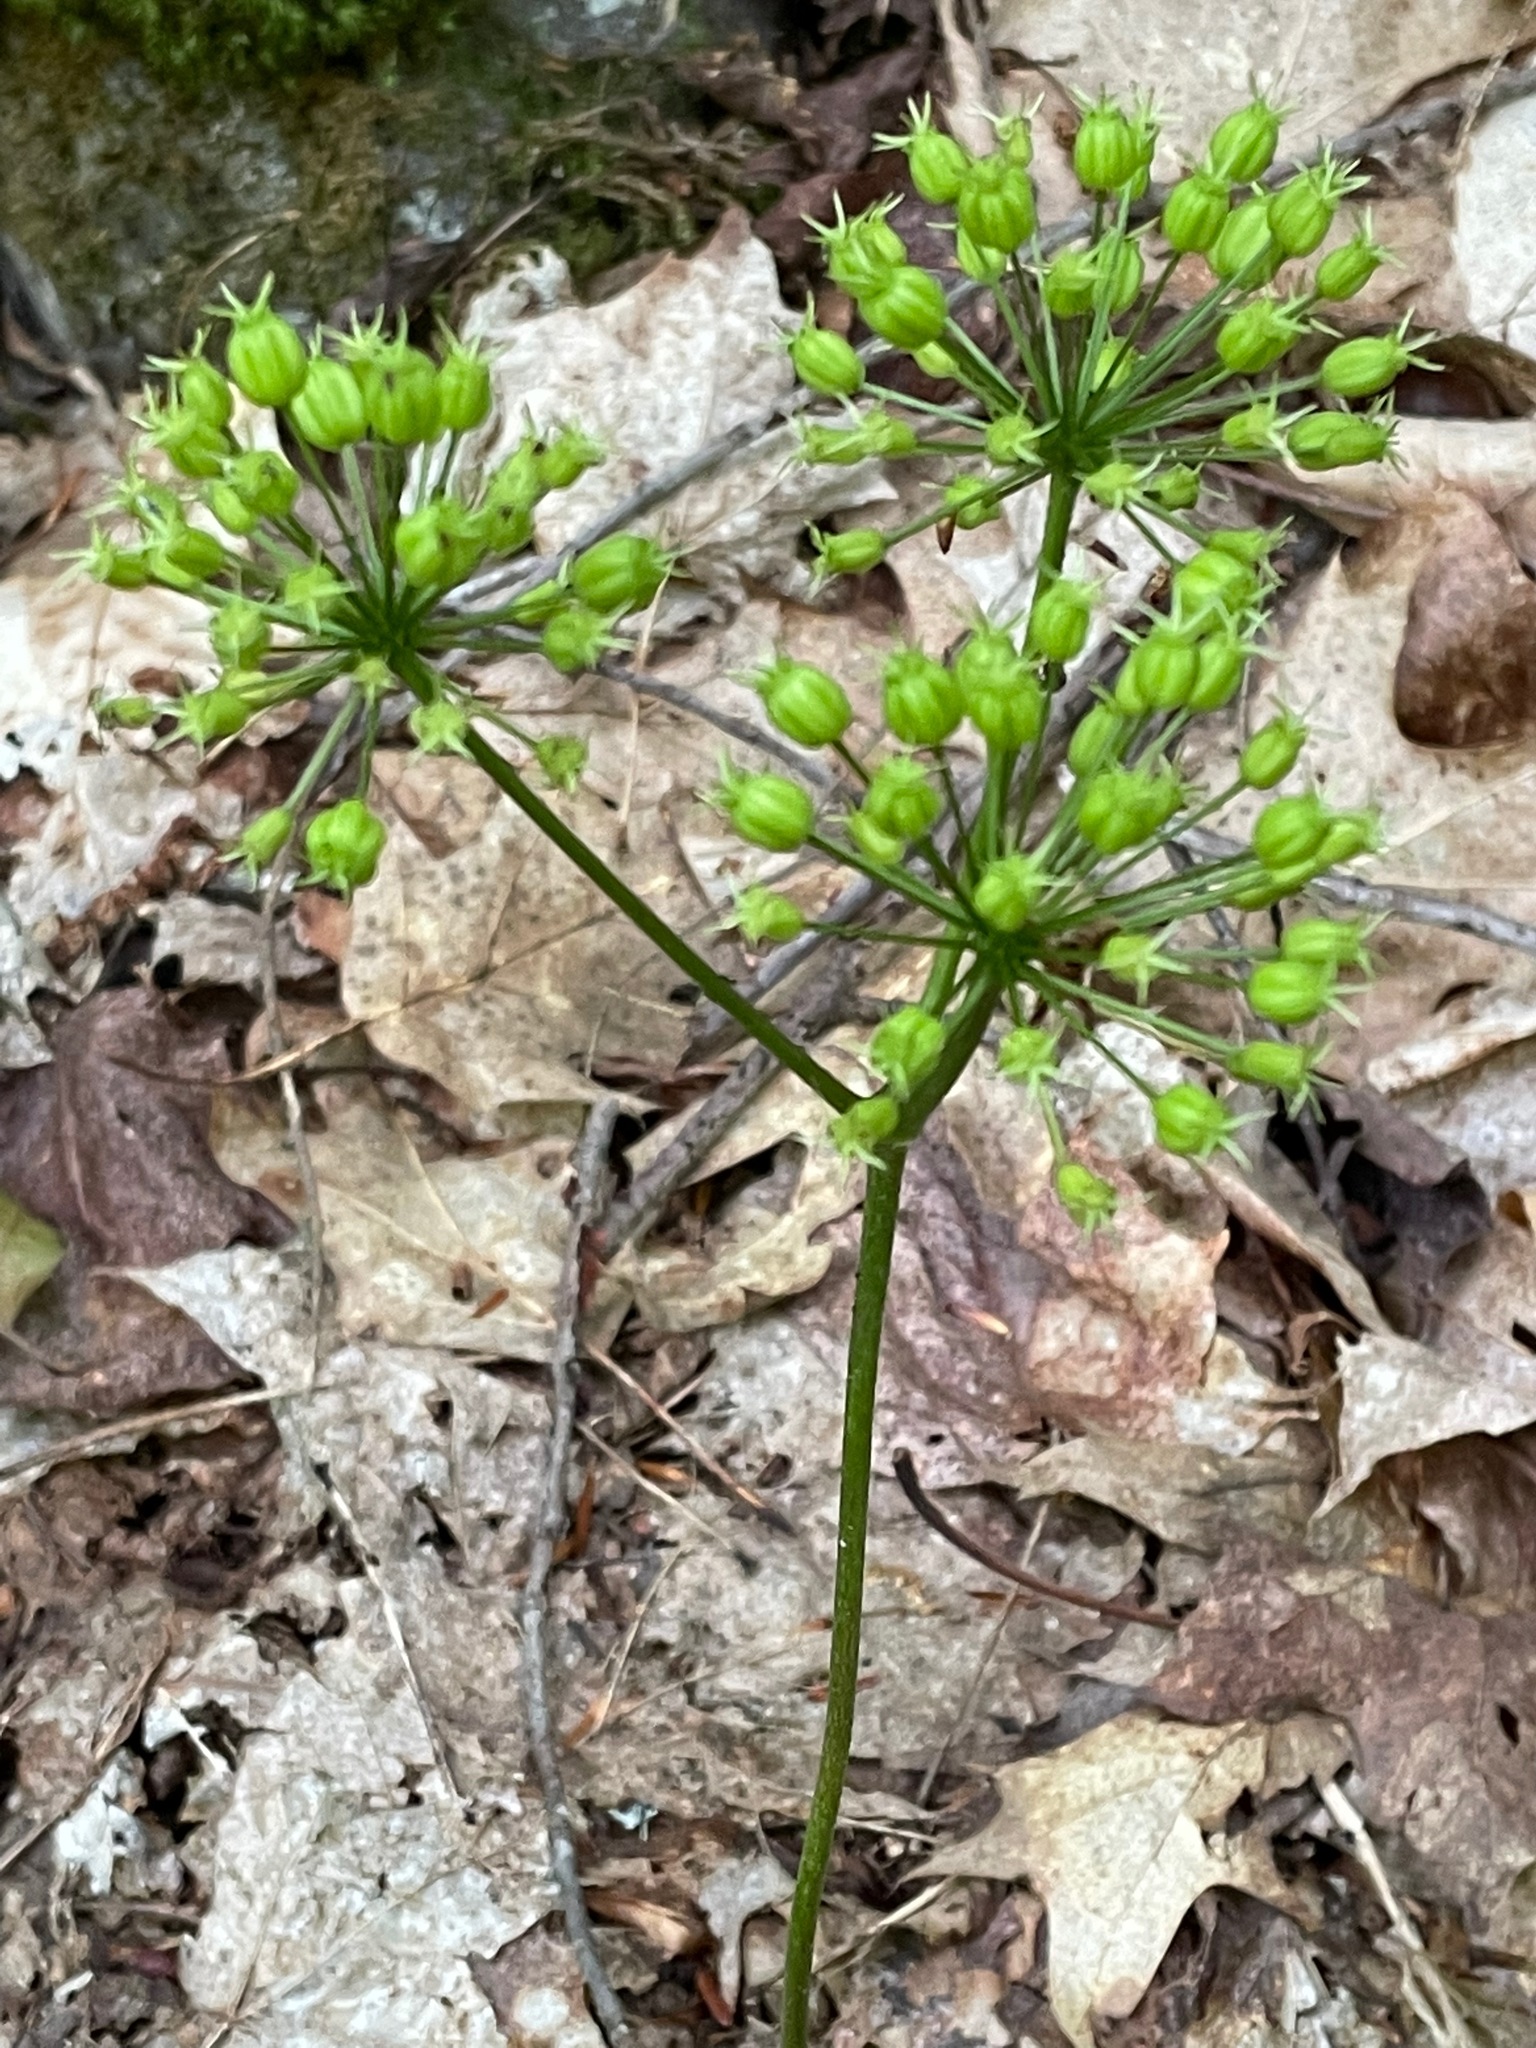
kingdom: Plantae
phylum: Tracheophyta
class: Magnoliopsida
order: Apiales
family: Araliaceae
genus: Aralia
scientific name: Aralia nudicaulis
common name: Wild sarsaparilla
